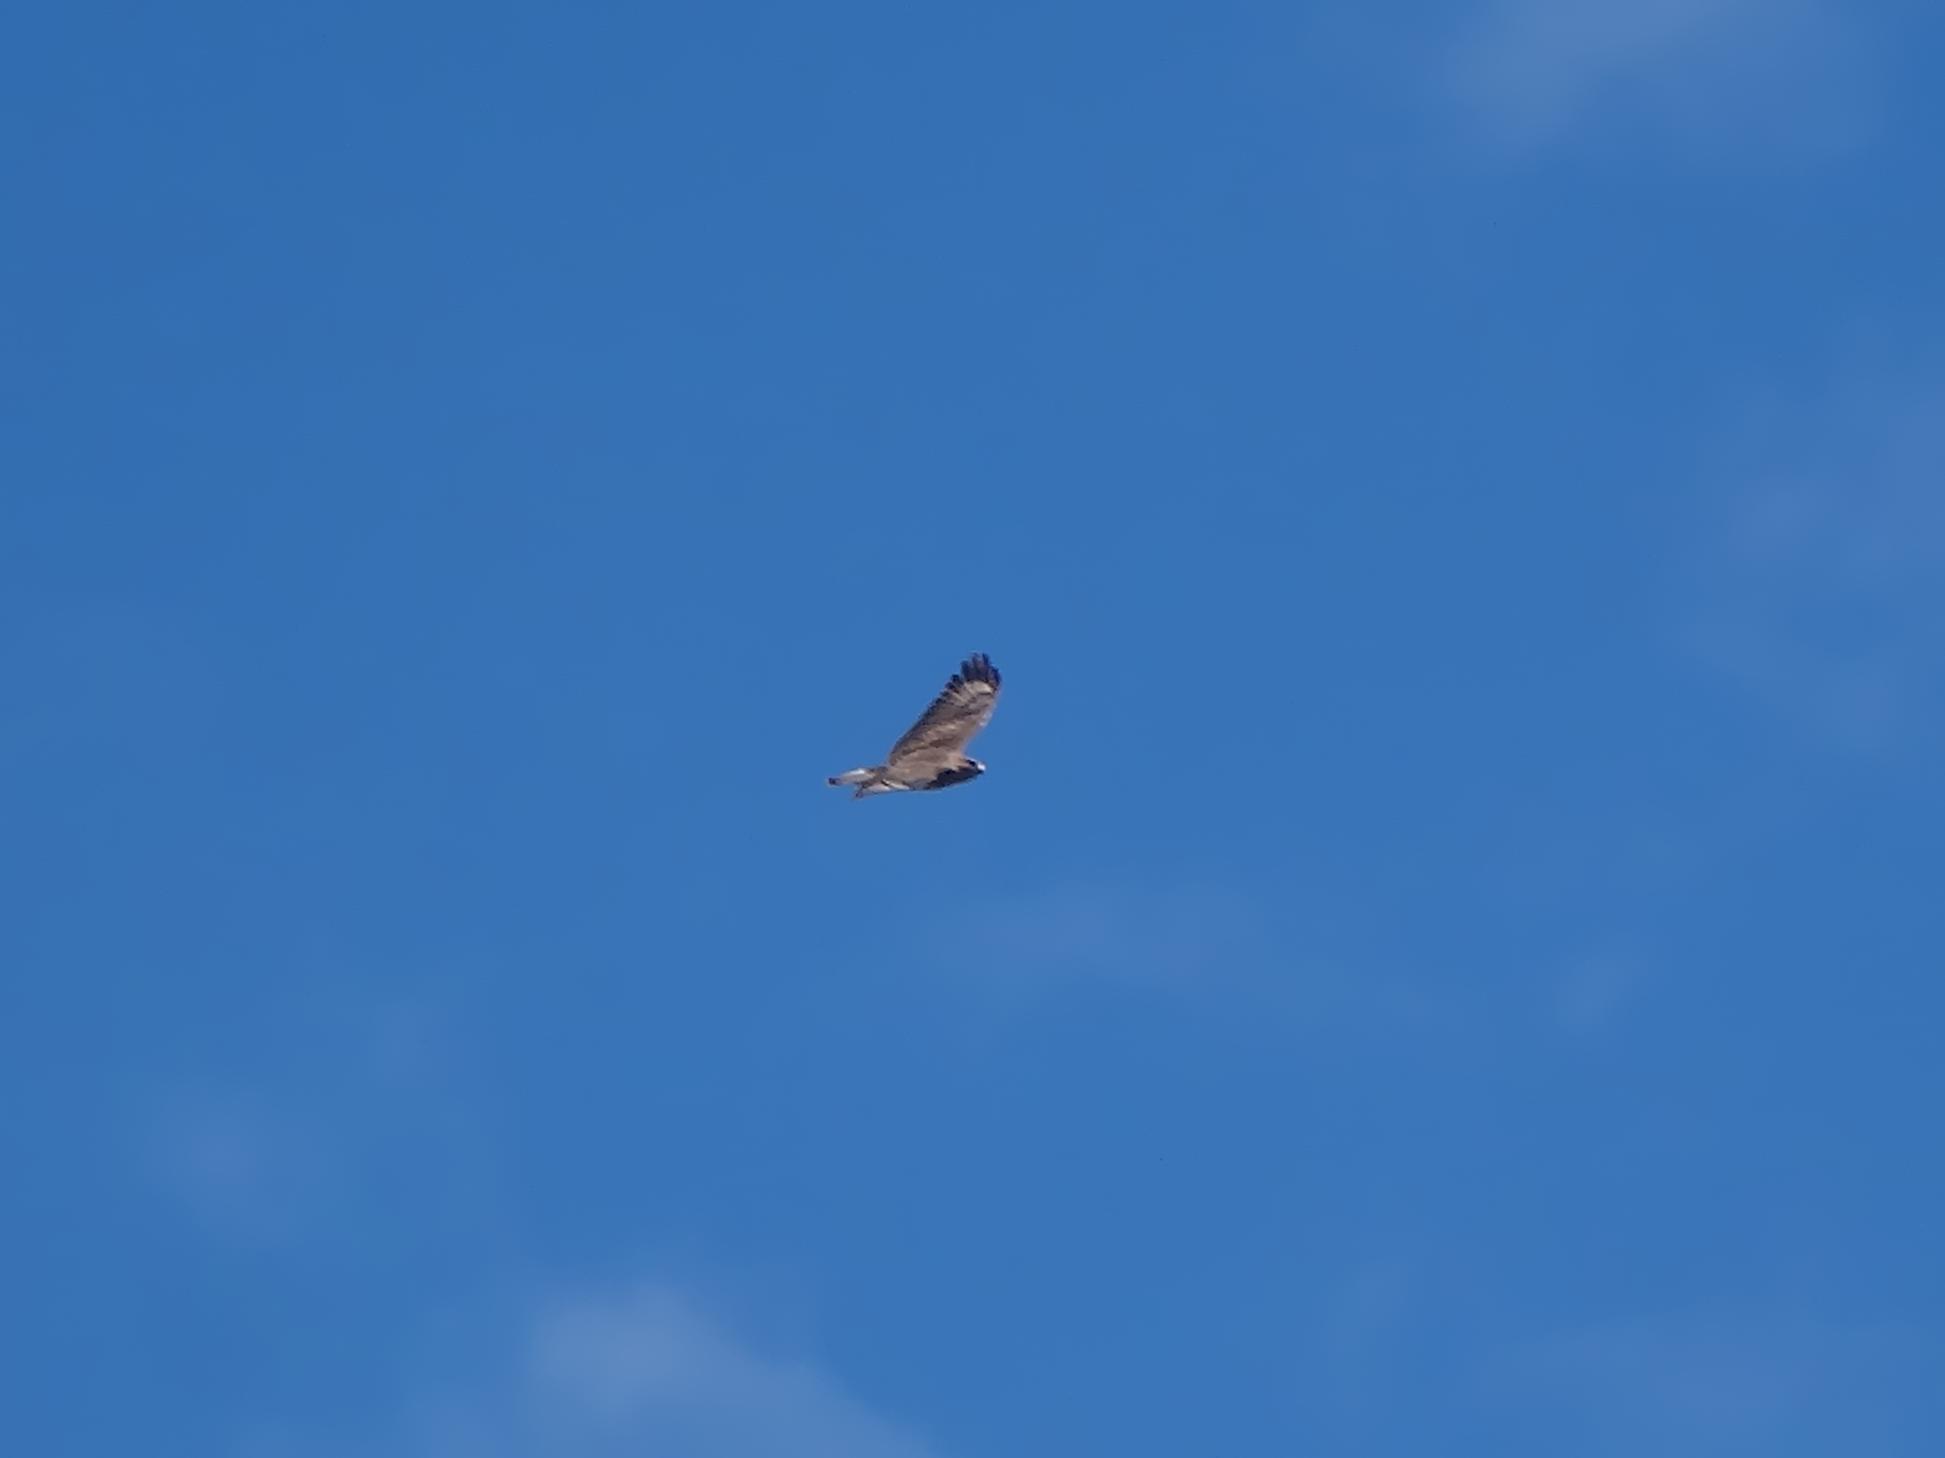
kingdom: Animalia
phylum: Chordata
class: Aves
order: Accipitriformes
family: Accipitridae
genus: Buteo
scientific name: Buteo buteo
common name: Common buzzard
